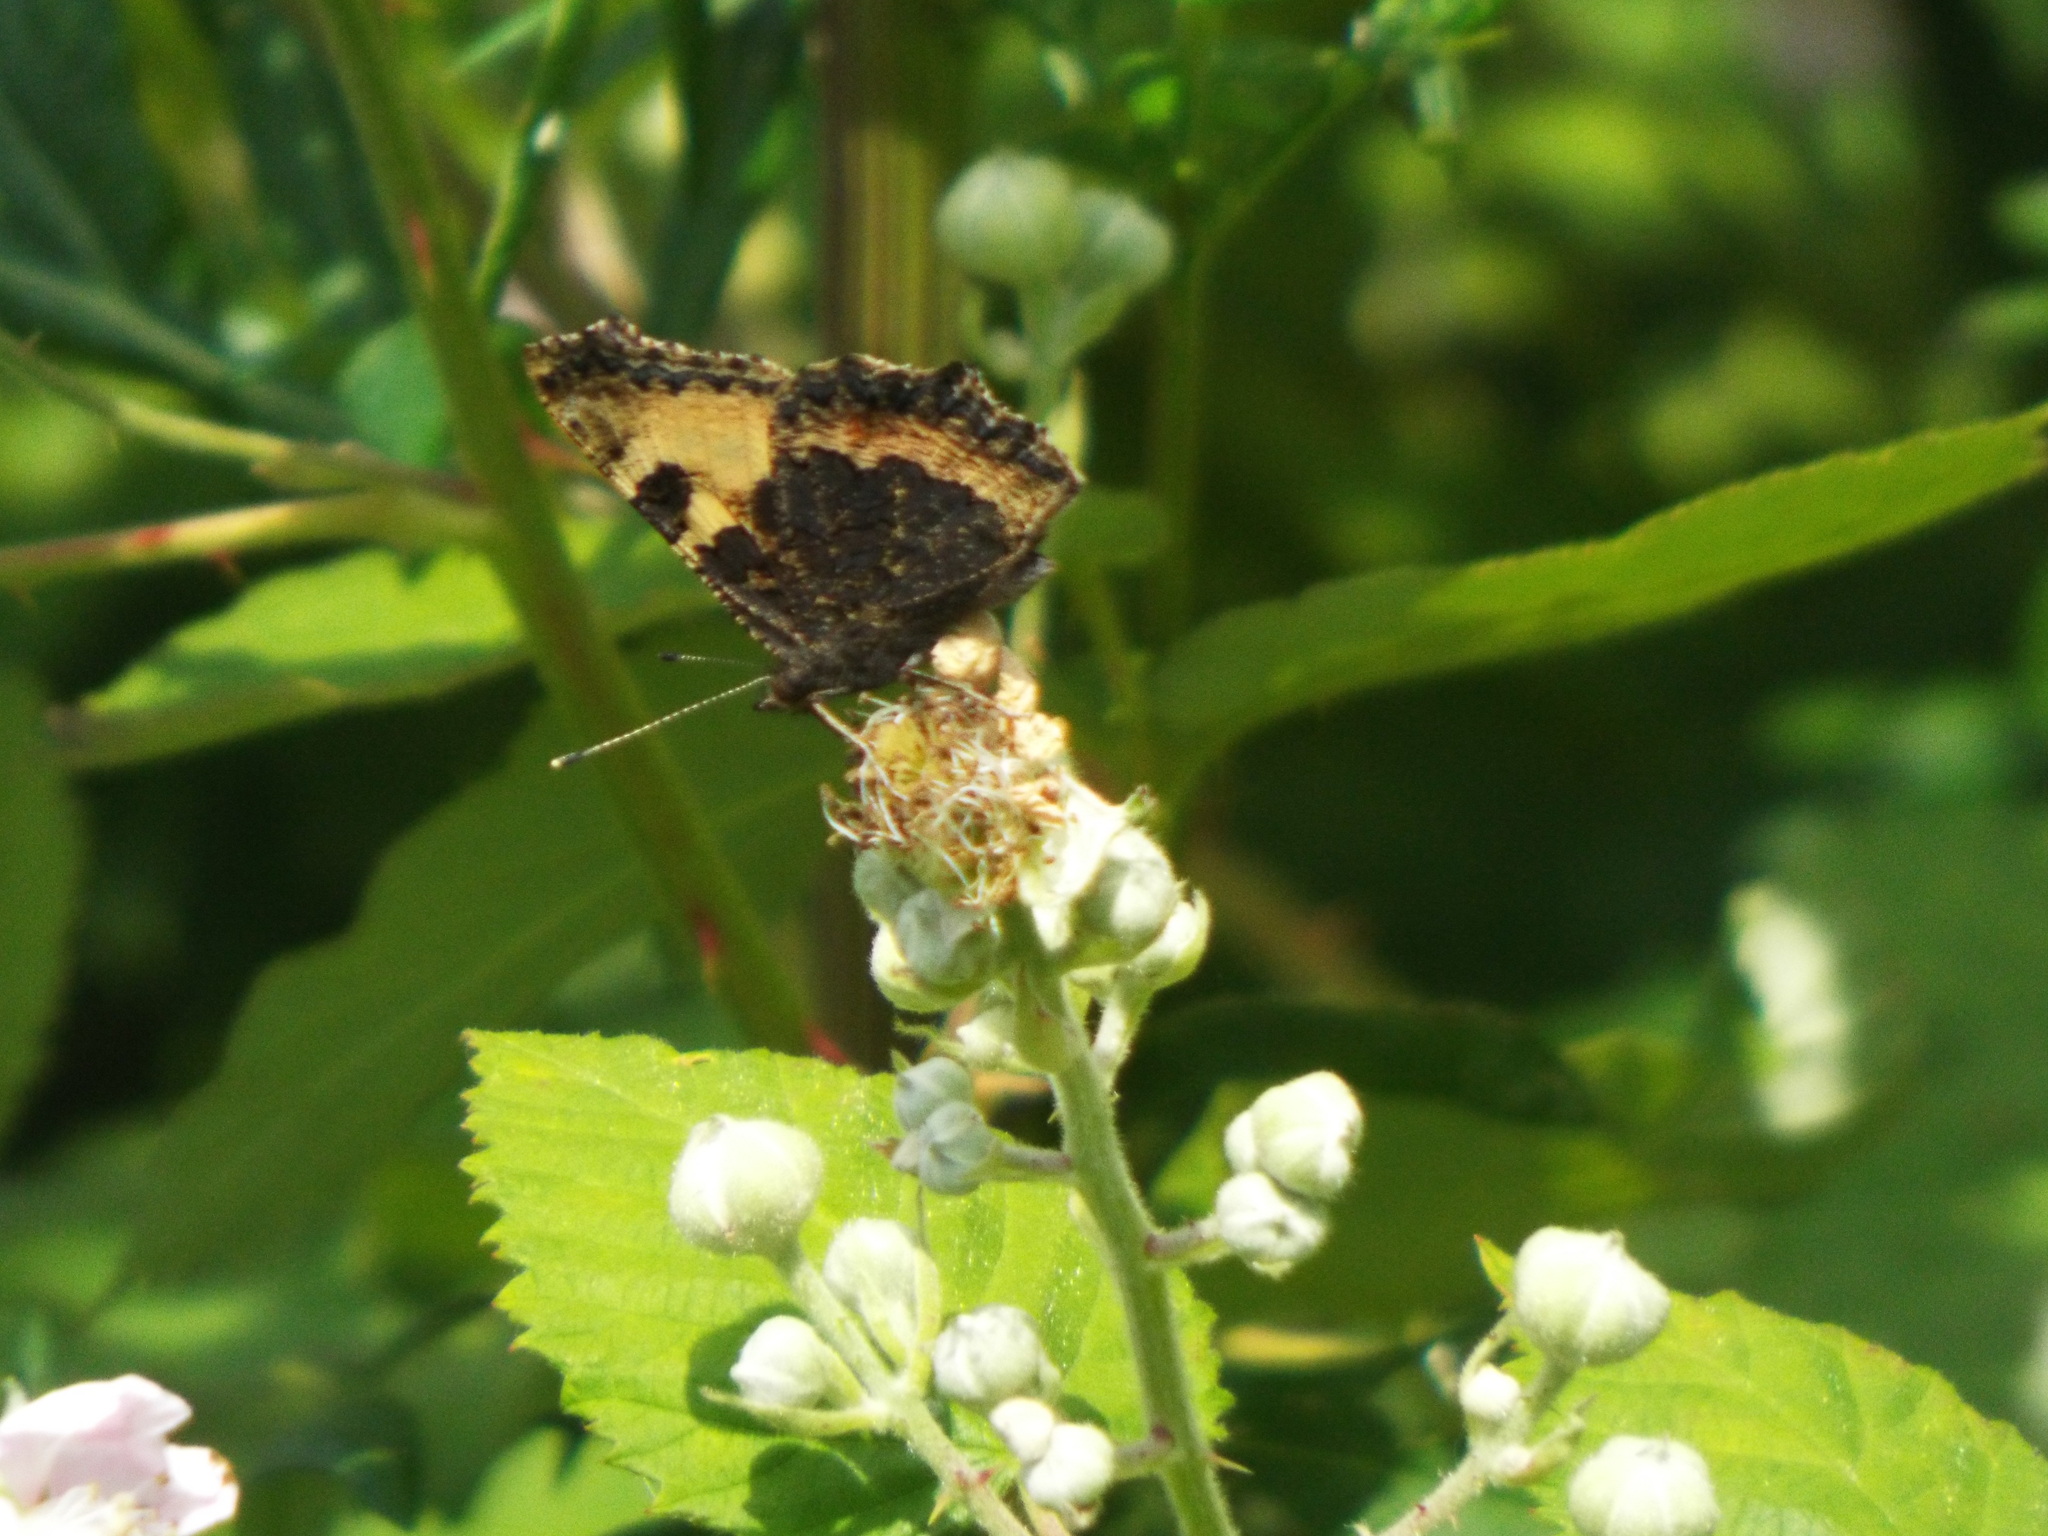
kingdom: Animalia
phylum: Arthropoda
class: Insecta
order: Lepidoptera
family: Nymphalidae
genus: Aglais
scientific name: Aglais urticae
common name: Small tortoiseshell
